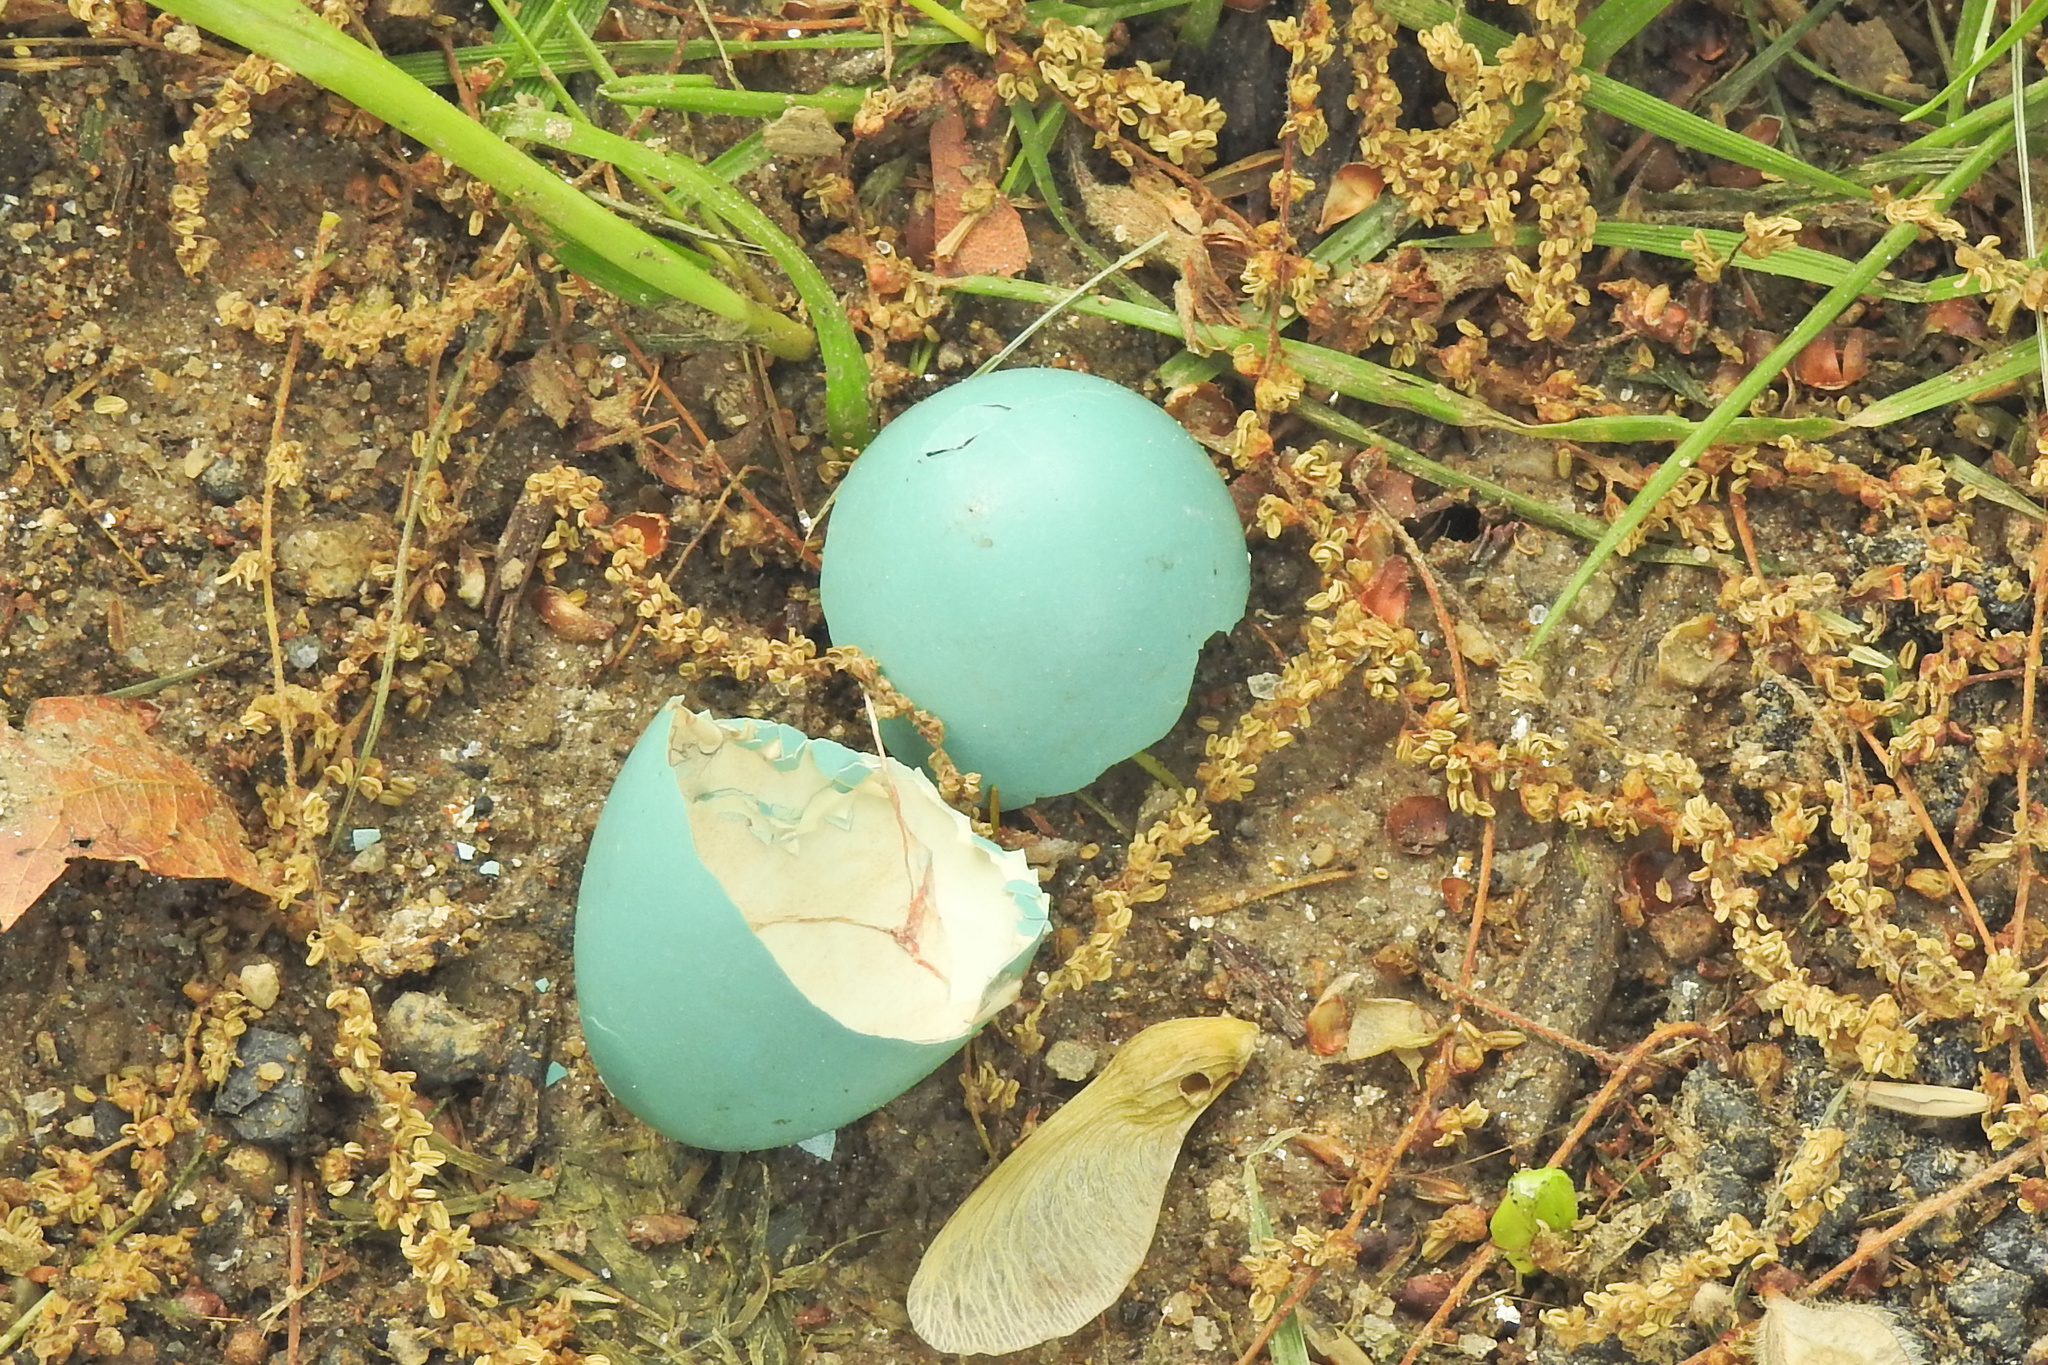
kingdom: Animalia
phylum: Chordata
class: Aves
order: Passeriformes
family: Turdidae
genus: Turdus
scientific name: Turdus migratorius
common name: American robin
